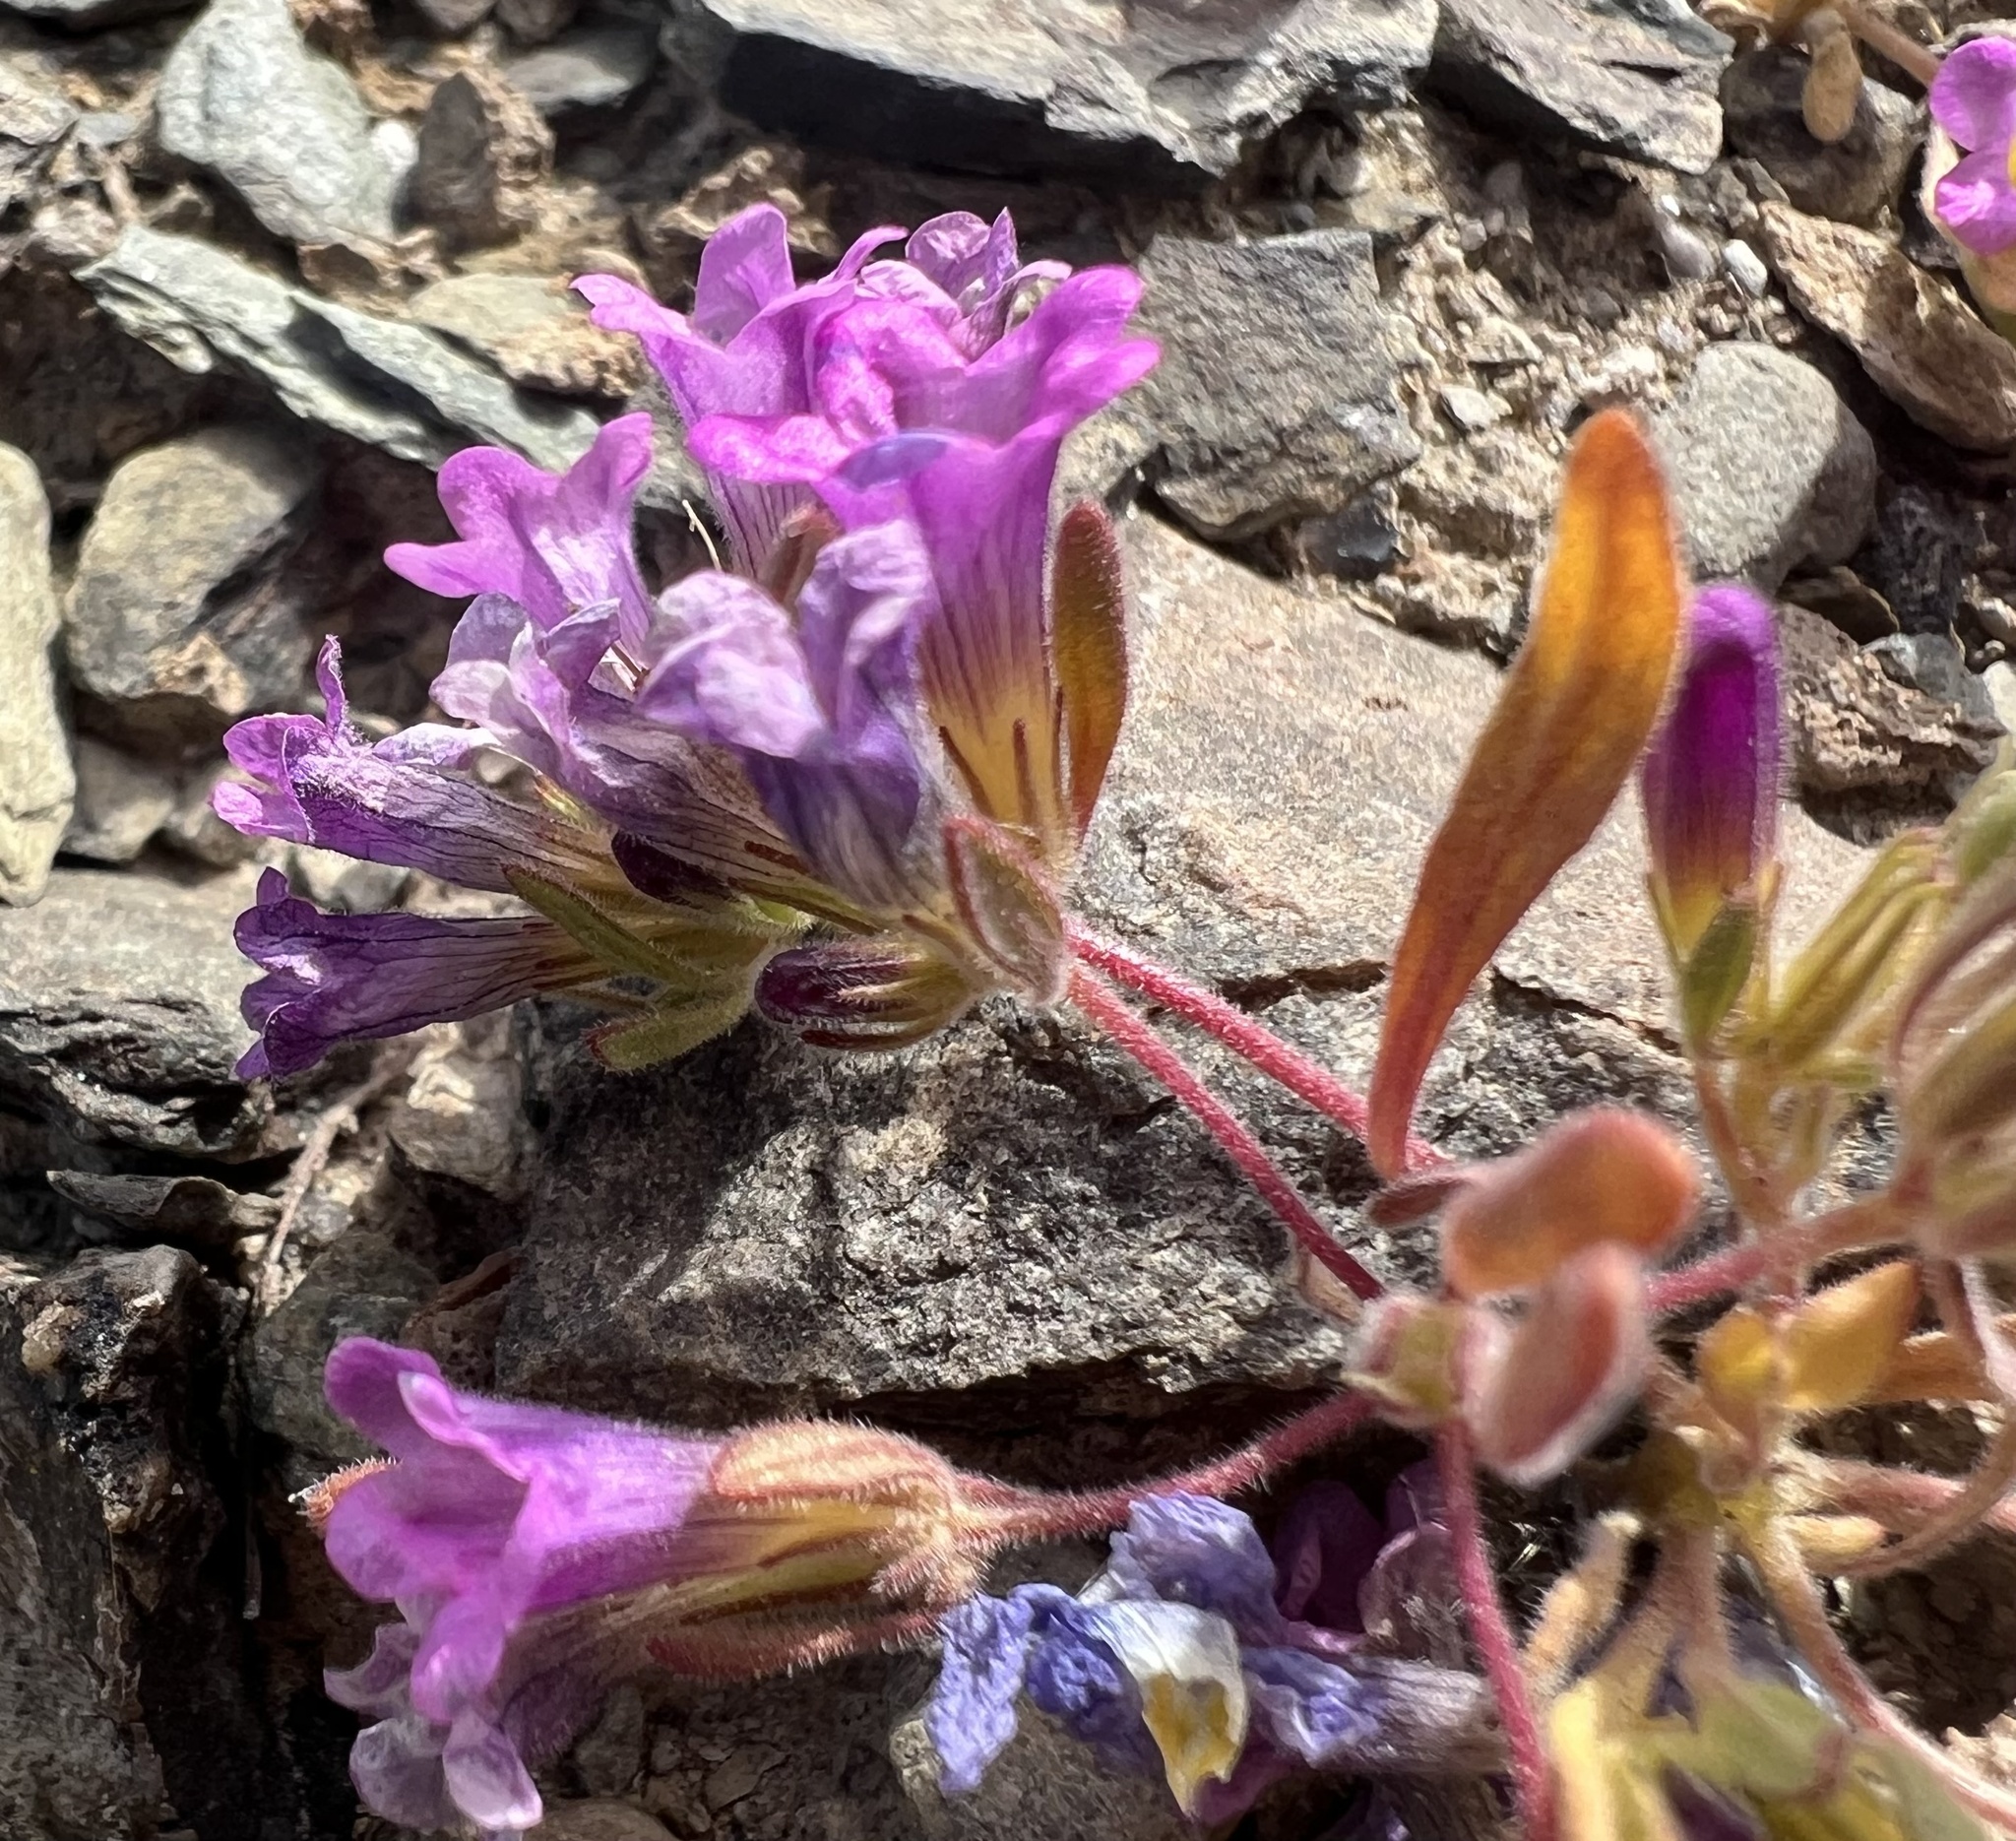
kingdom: Plantae
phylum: Tracheophyta
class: Magnoliopsida
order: Boraginales
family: Namaceae
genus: Nama
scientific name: Nama demissa
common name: Leafy nama
